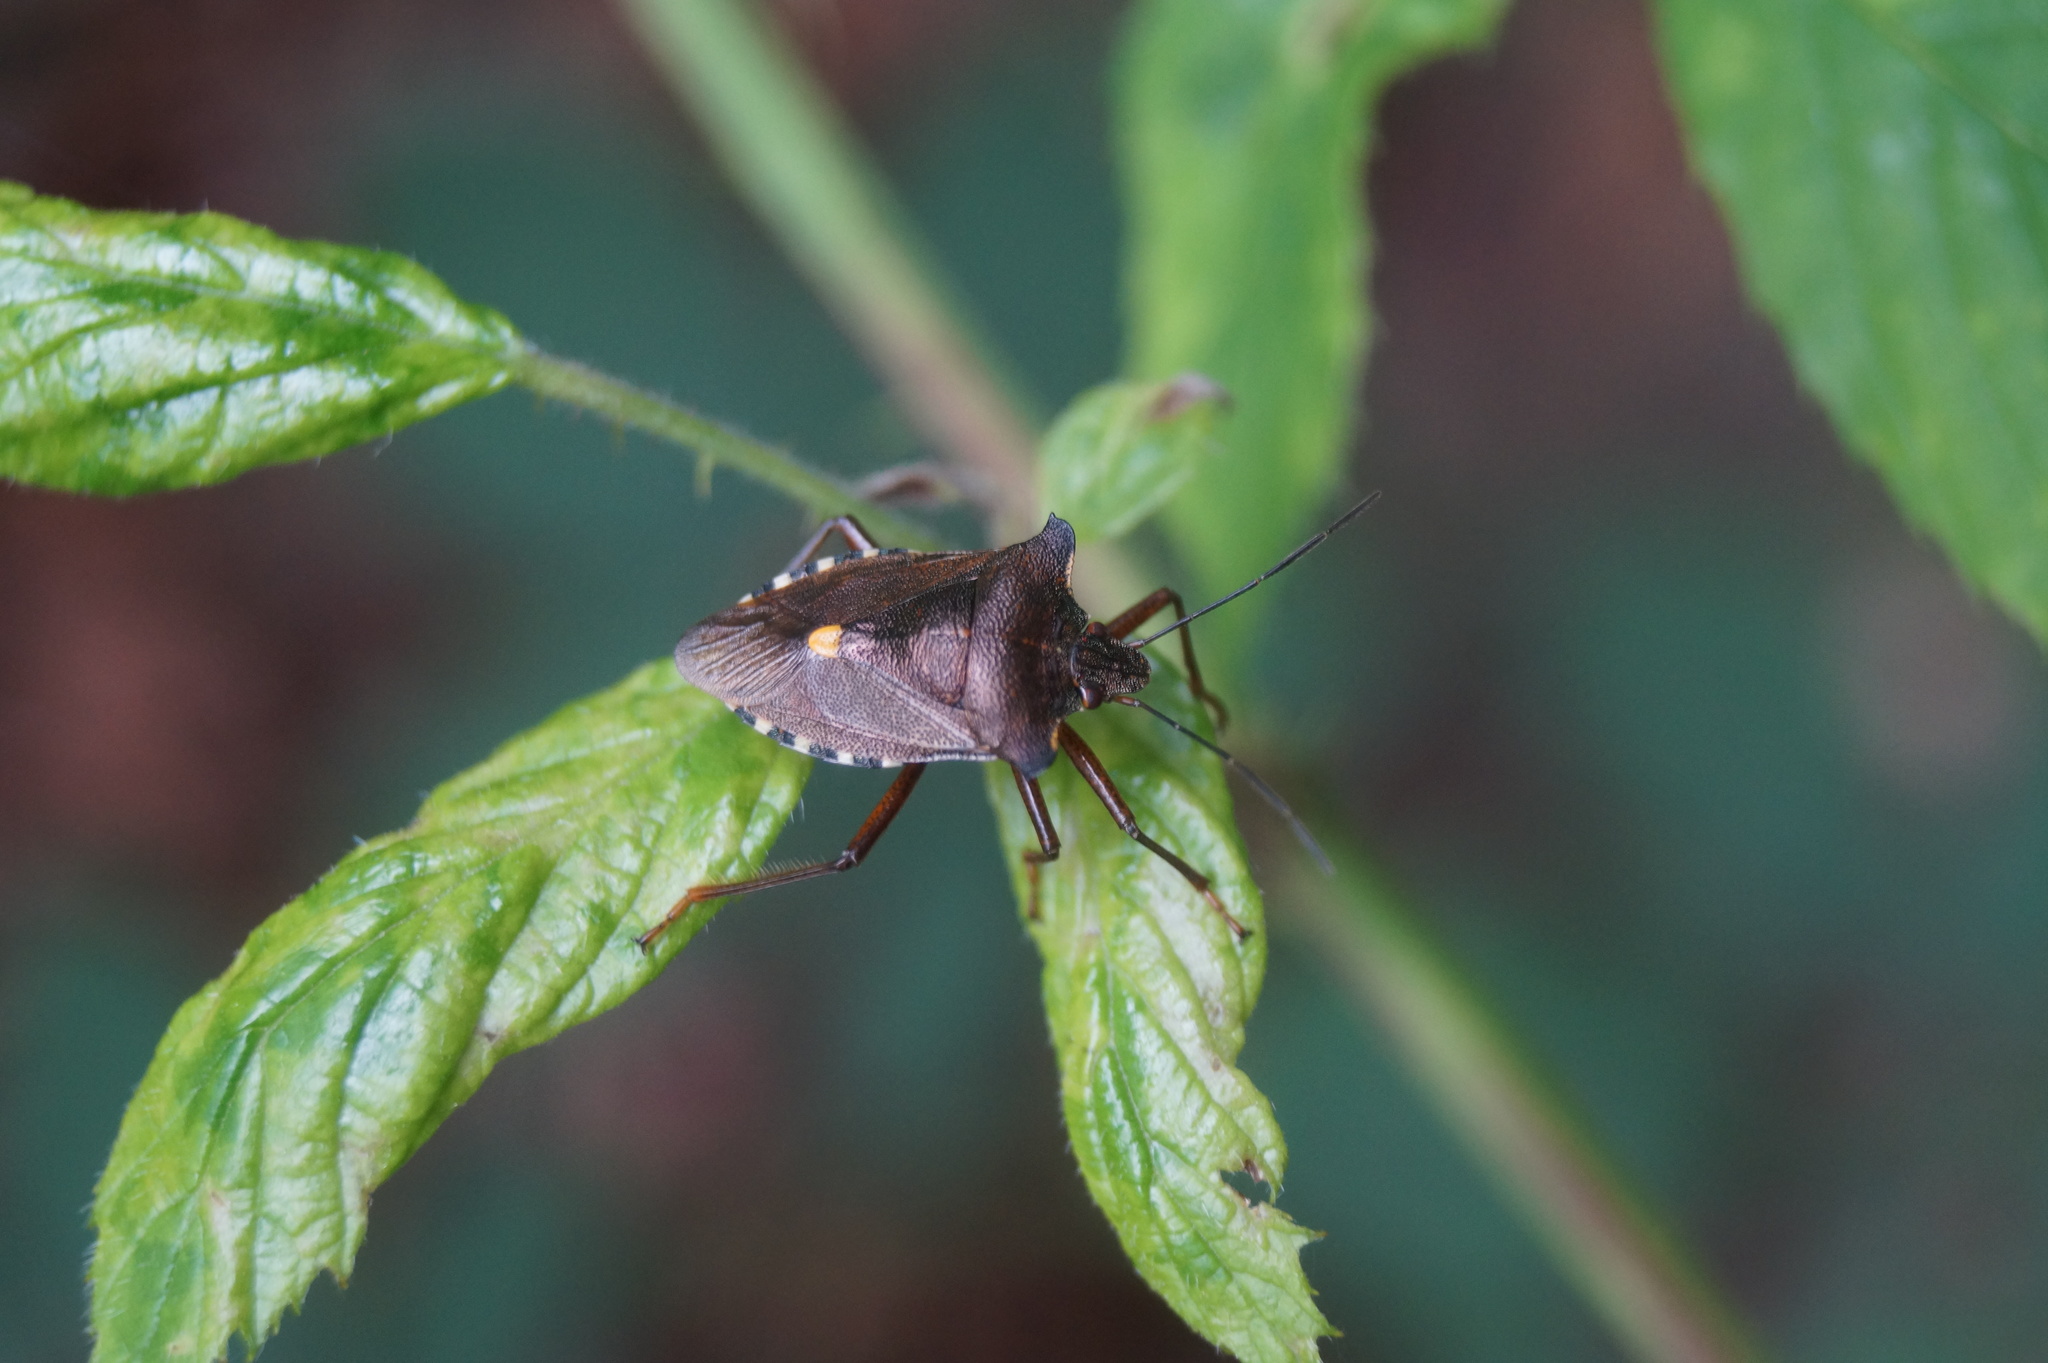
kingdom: Animalia
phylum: Arthropoda
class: Insecta
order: Hemiptera
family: Pentatomidae
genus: Pentatoma
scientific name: Pentatoma rufipes
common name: Forest bug
